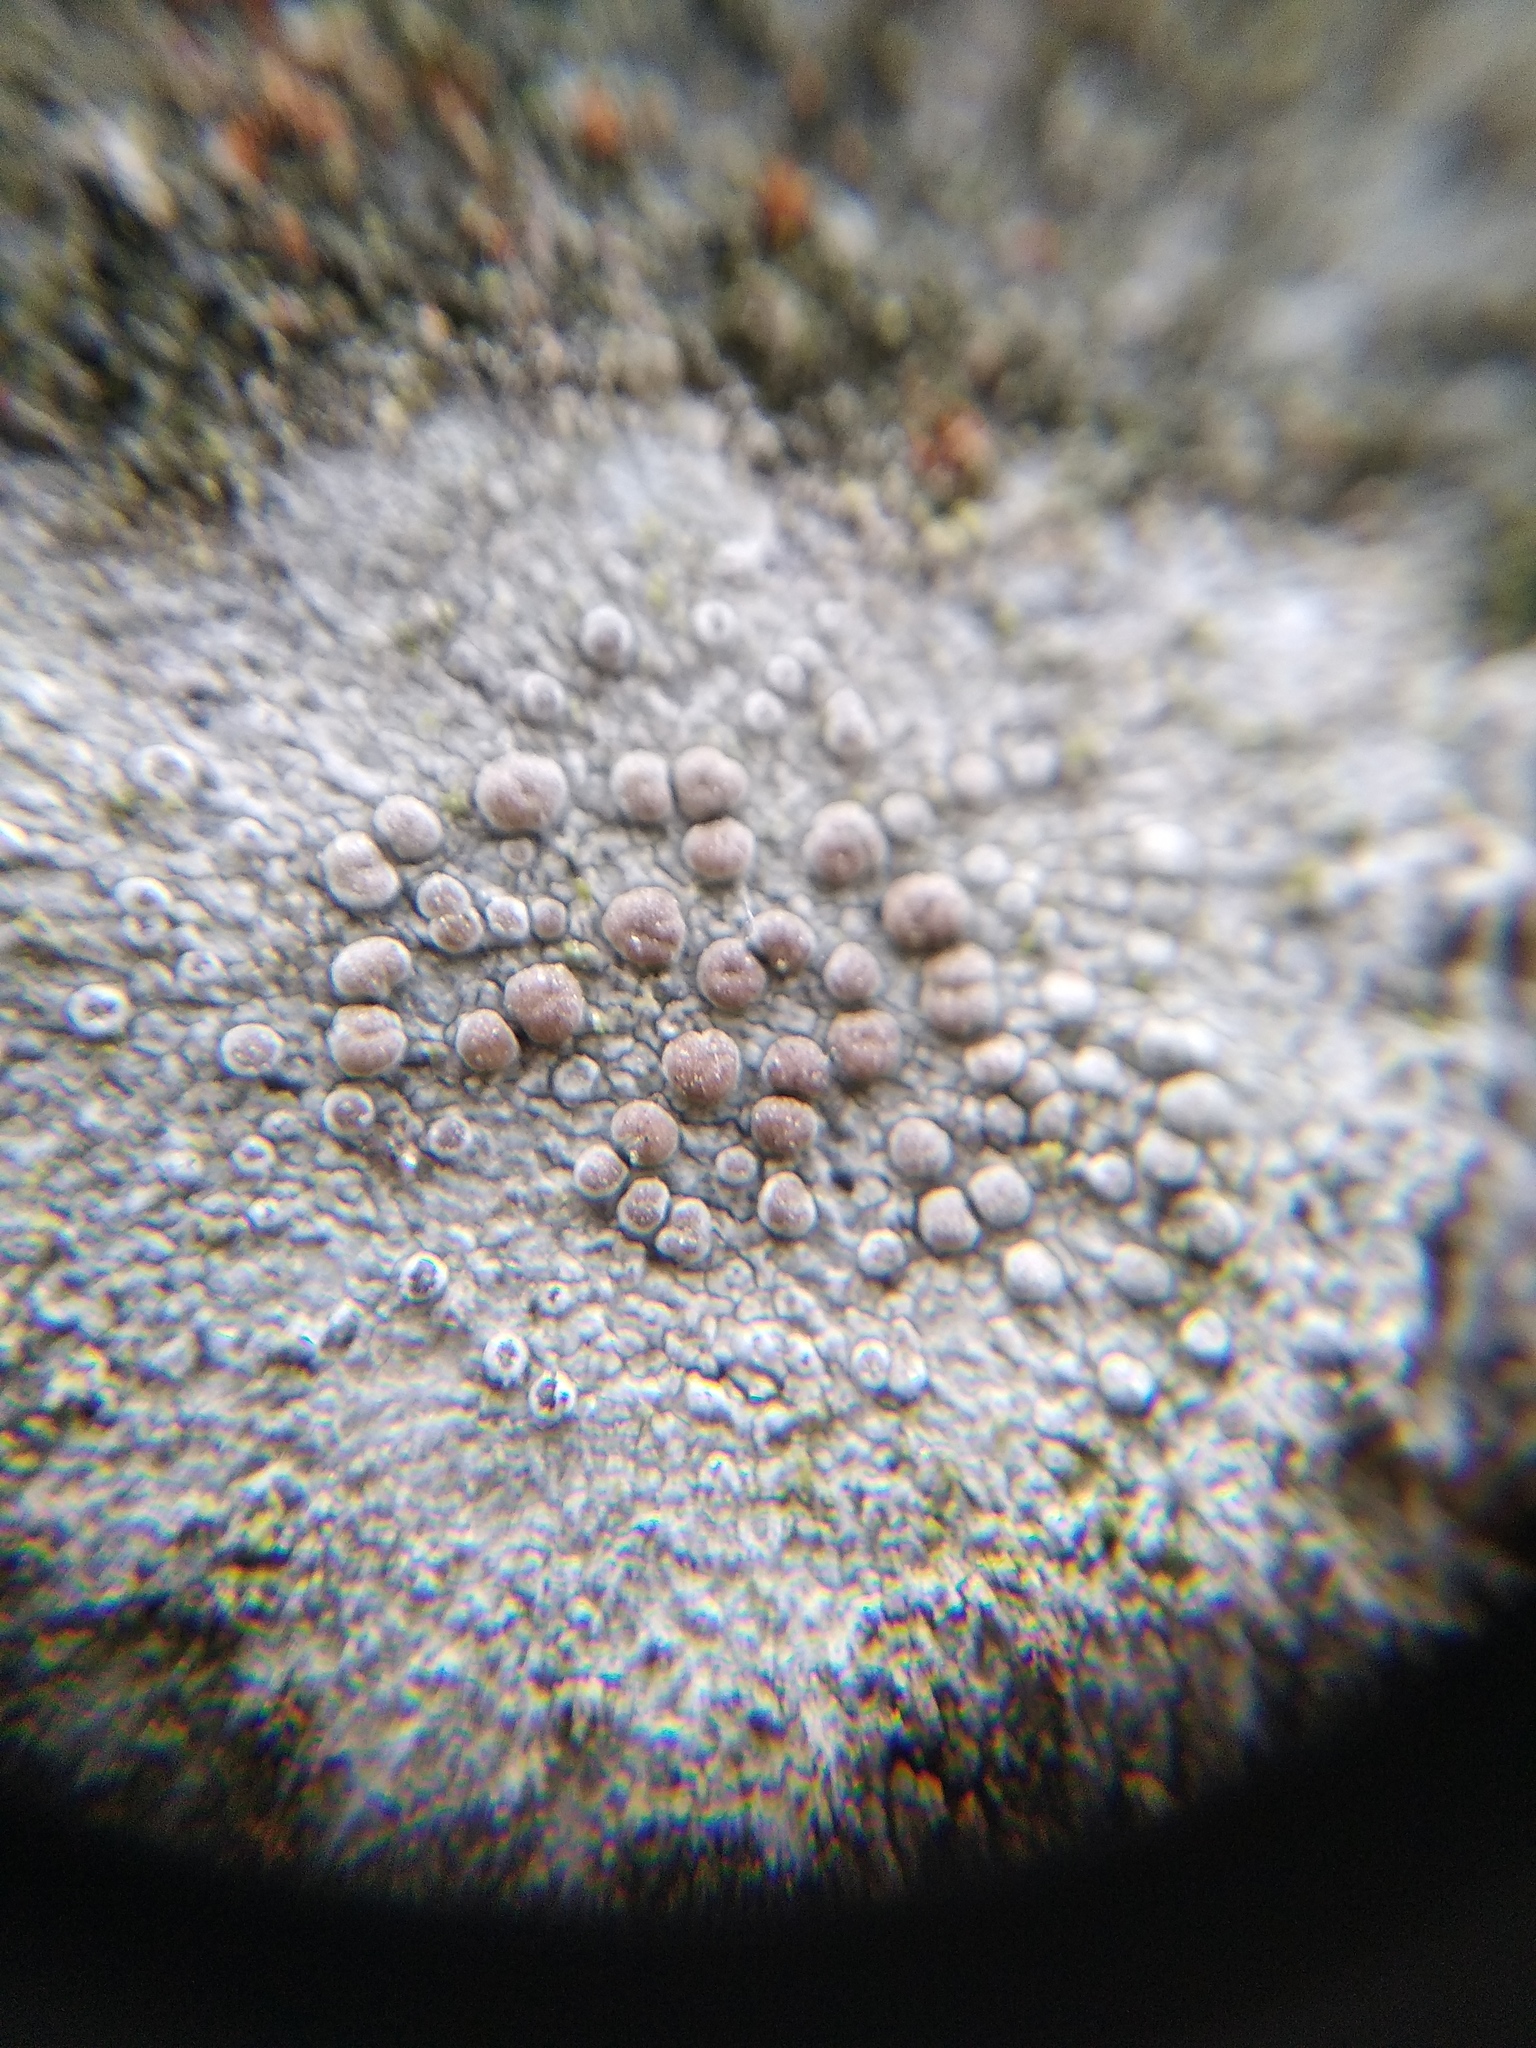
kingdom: Fungi
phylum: Ascomycota
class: Lecanoromycetes
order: Lecanorales
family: Lecanoraceae
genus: Glaucomaria
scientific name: Glaucomaria carpinea
